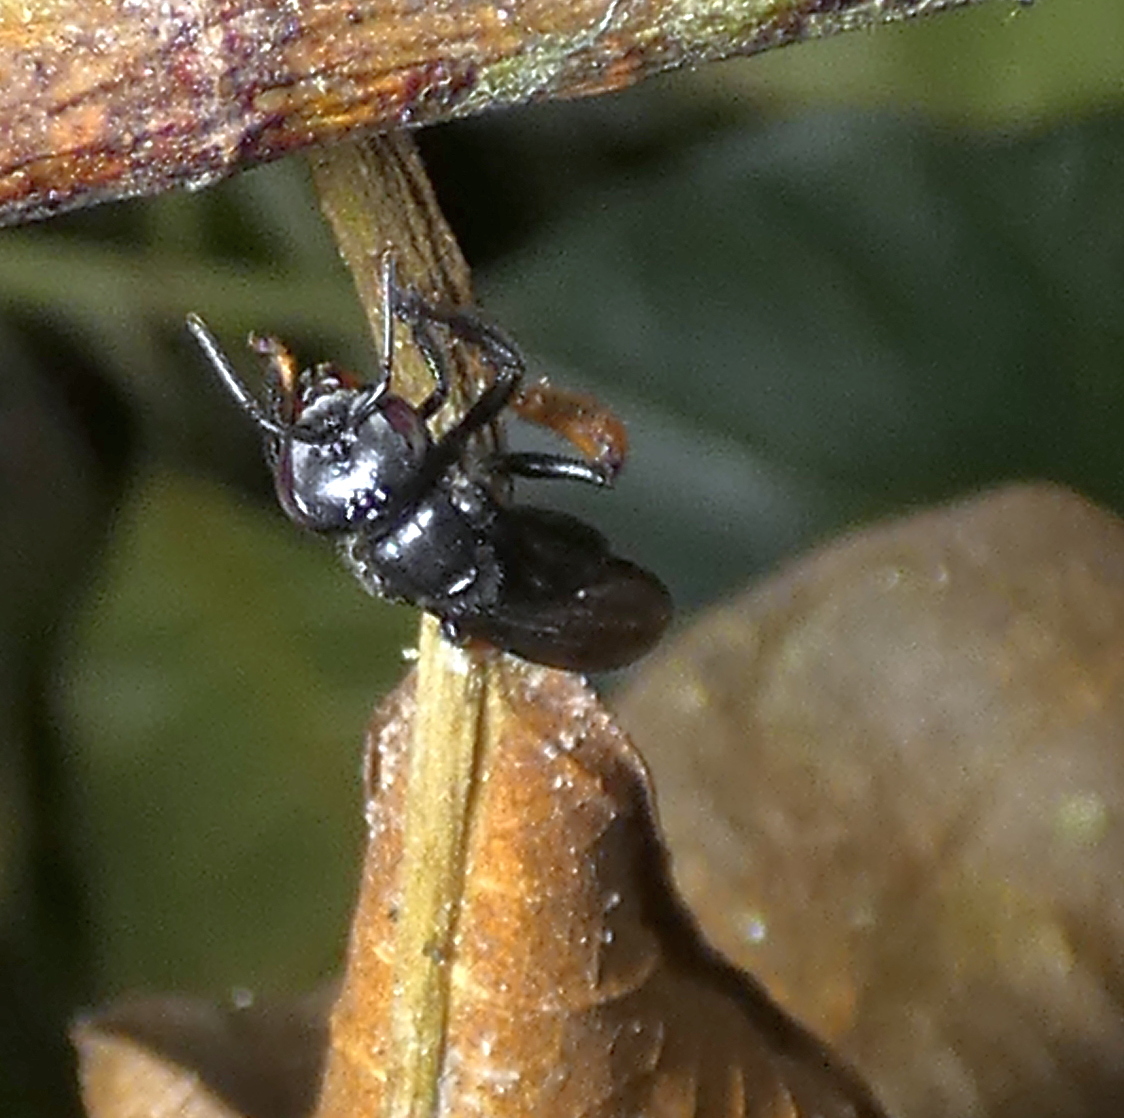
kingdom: Animalia
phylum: Arthropoda
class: Insecta
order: Hymenoptera
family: Apidae
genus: Trigona
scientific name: Trigona spinipes
